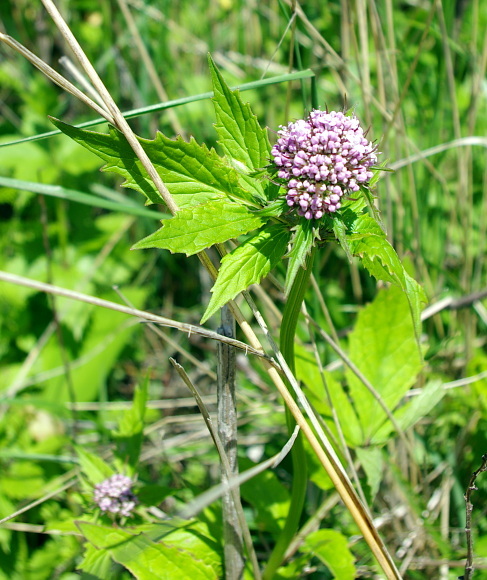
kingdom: Plantae
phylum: Tracheophyta
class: Magnoliopsida
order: Dipsacales
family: Caprifoliaceae
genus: Valeriana
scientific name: Valeriana fauriei
